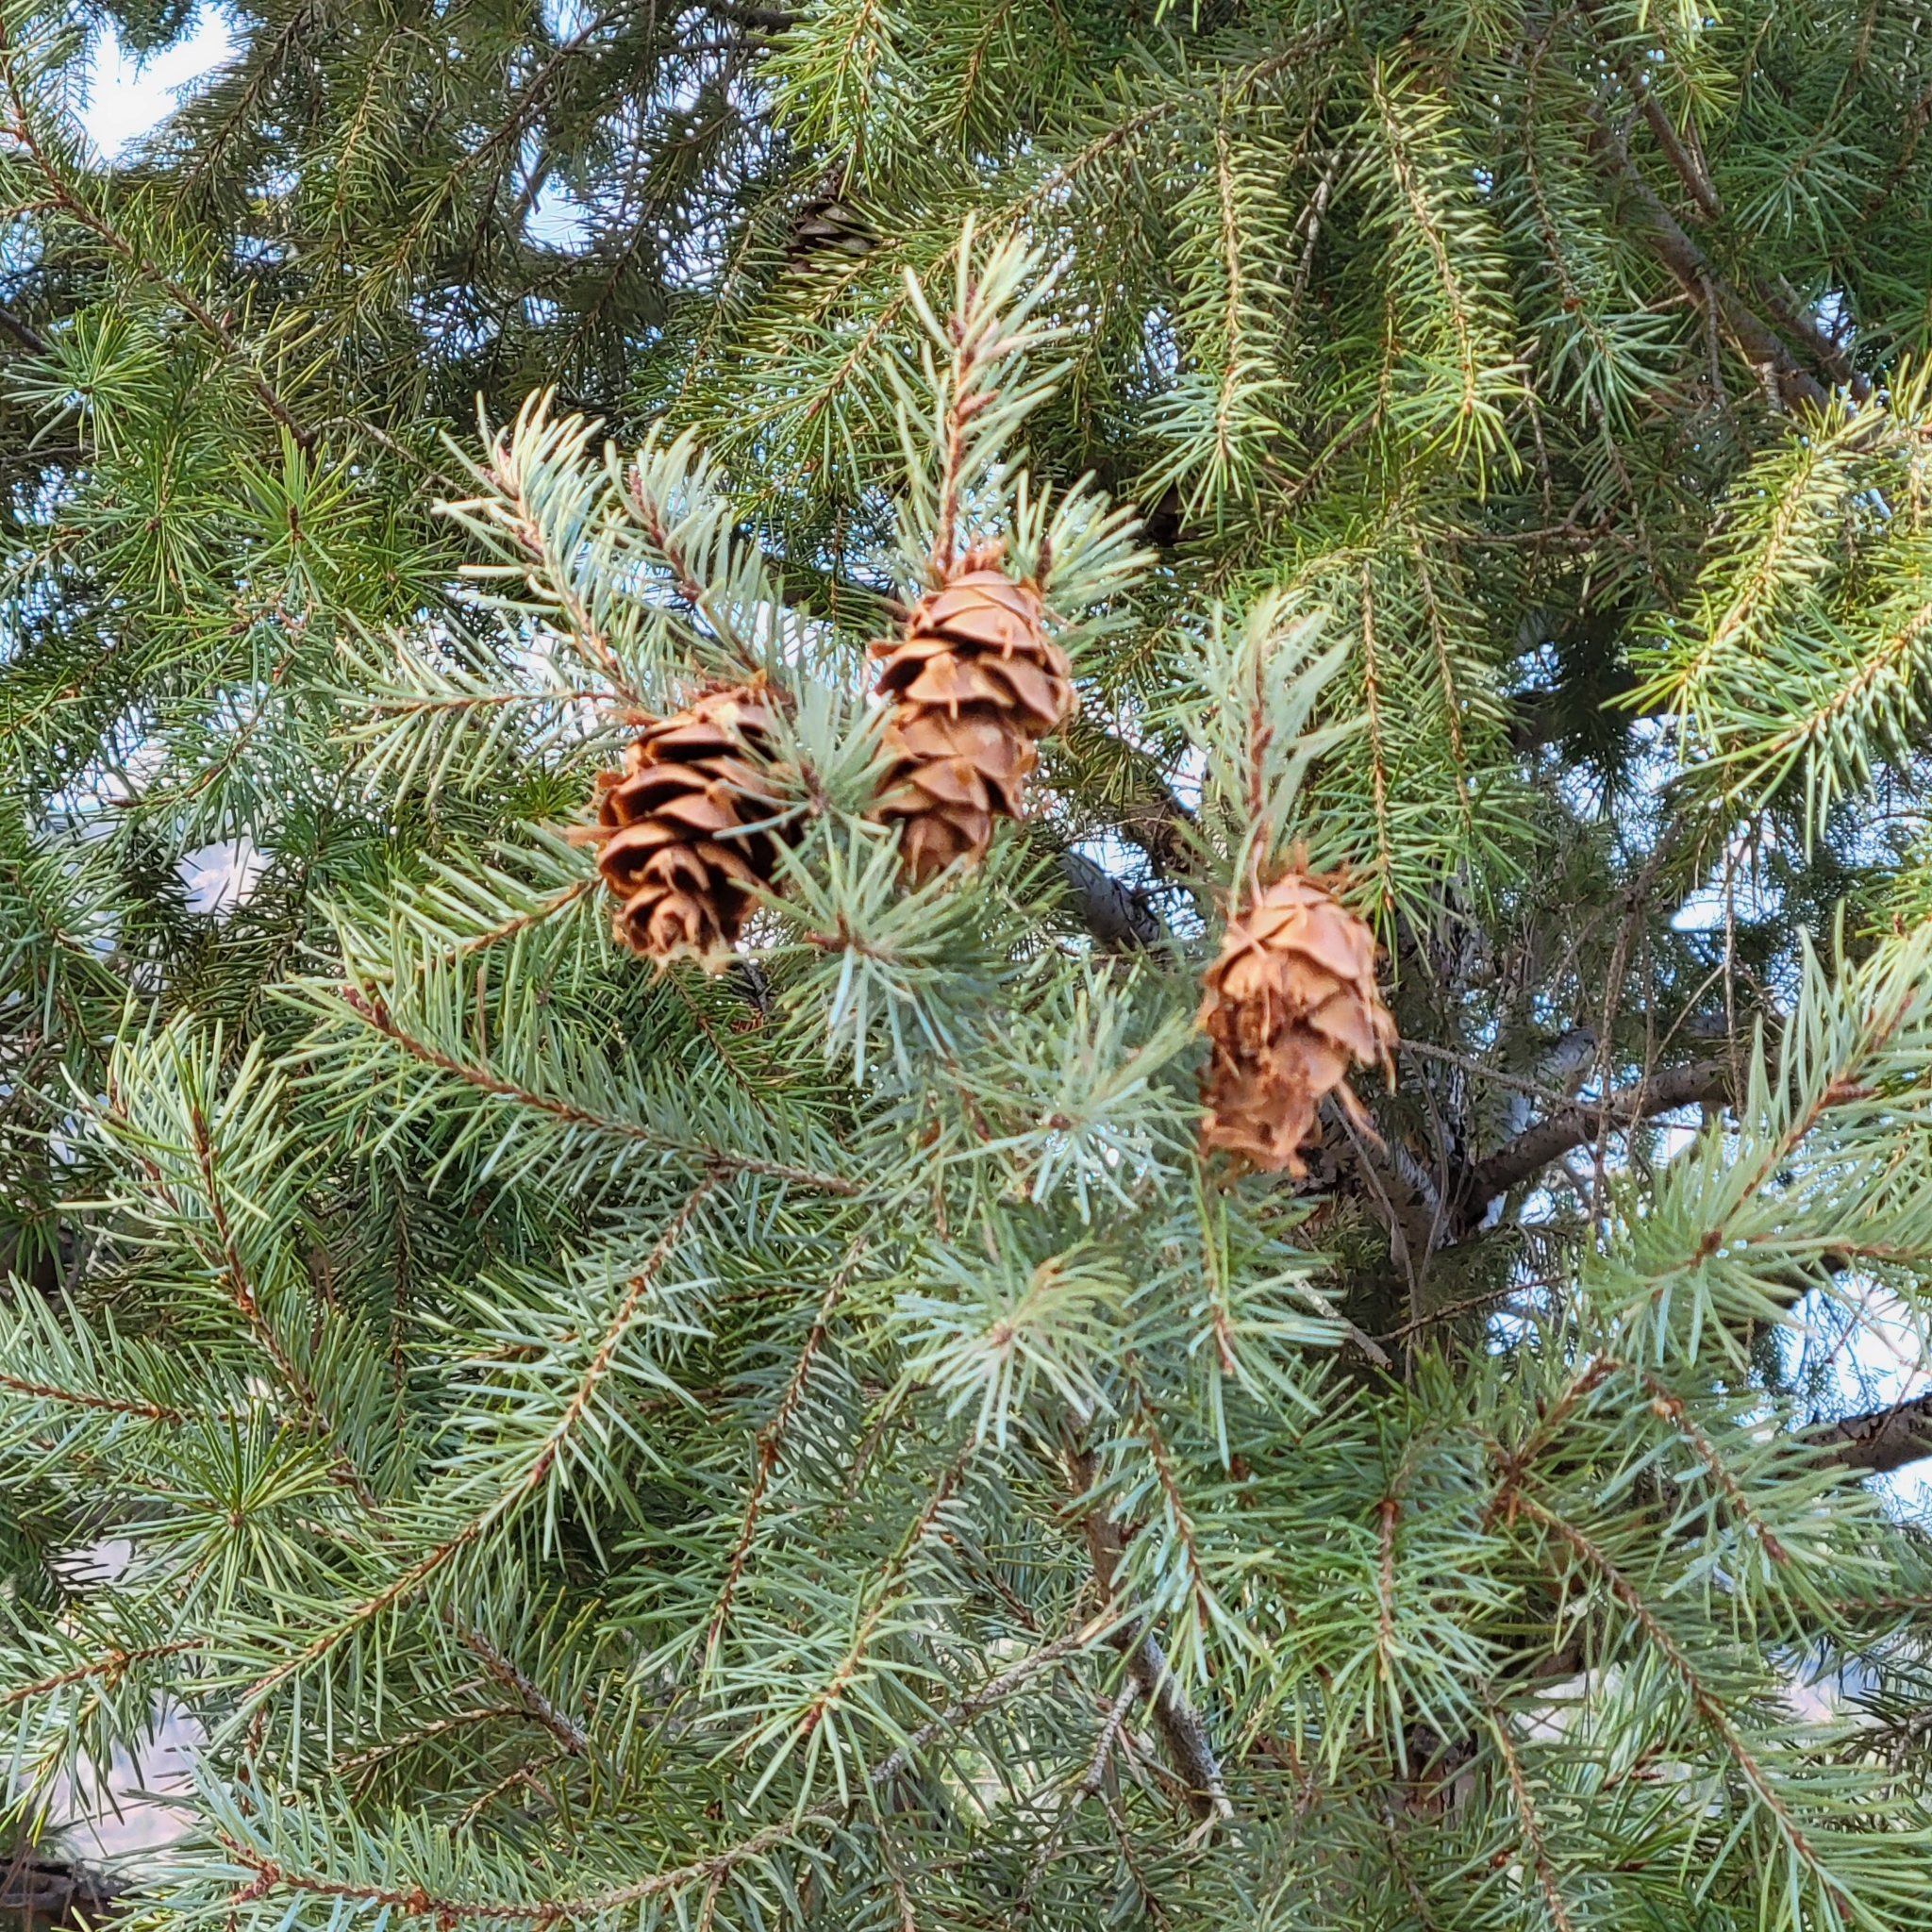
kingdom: Plantae
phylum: Tracheophyta
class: Pinopsida
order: Pinales
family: Pinaceae
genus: Pseudotsuga
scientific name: Pseudotsuga menziesii
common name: Douglas fir
